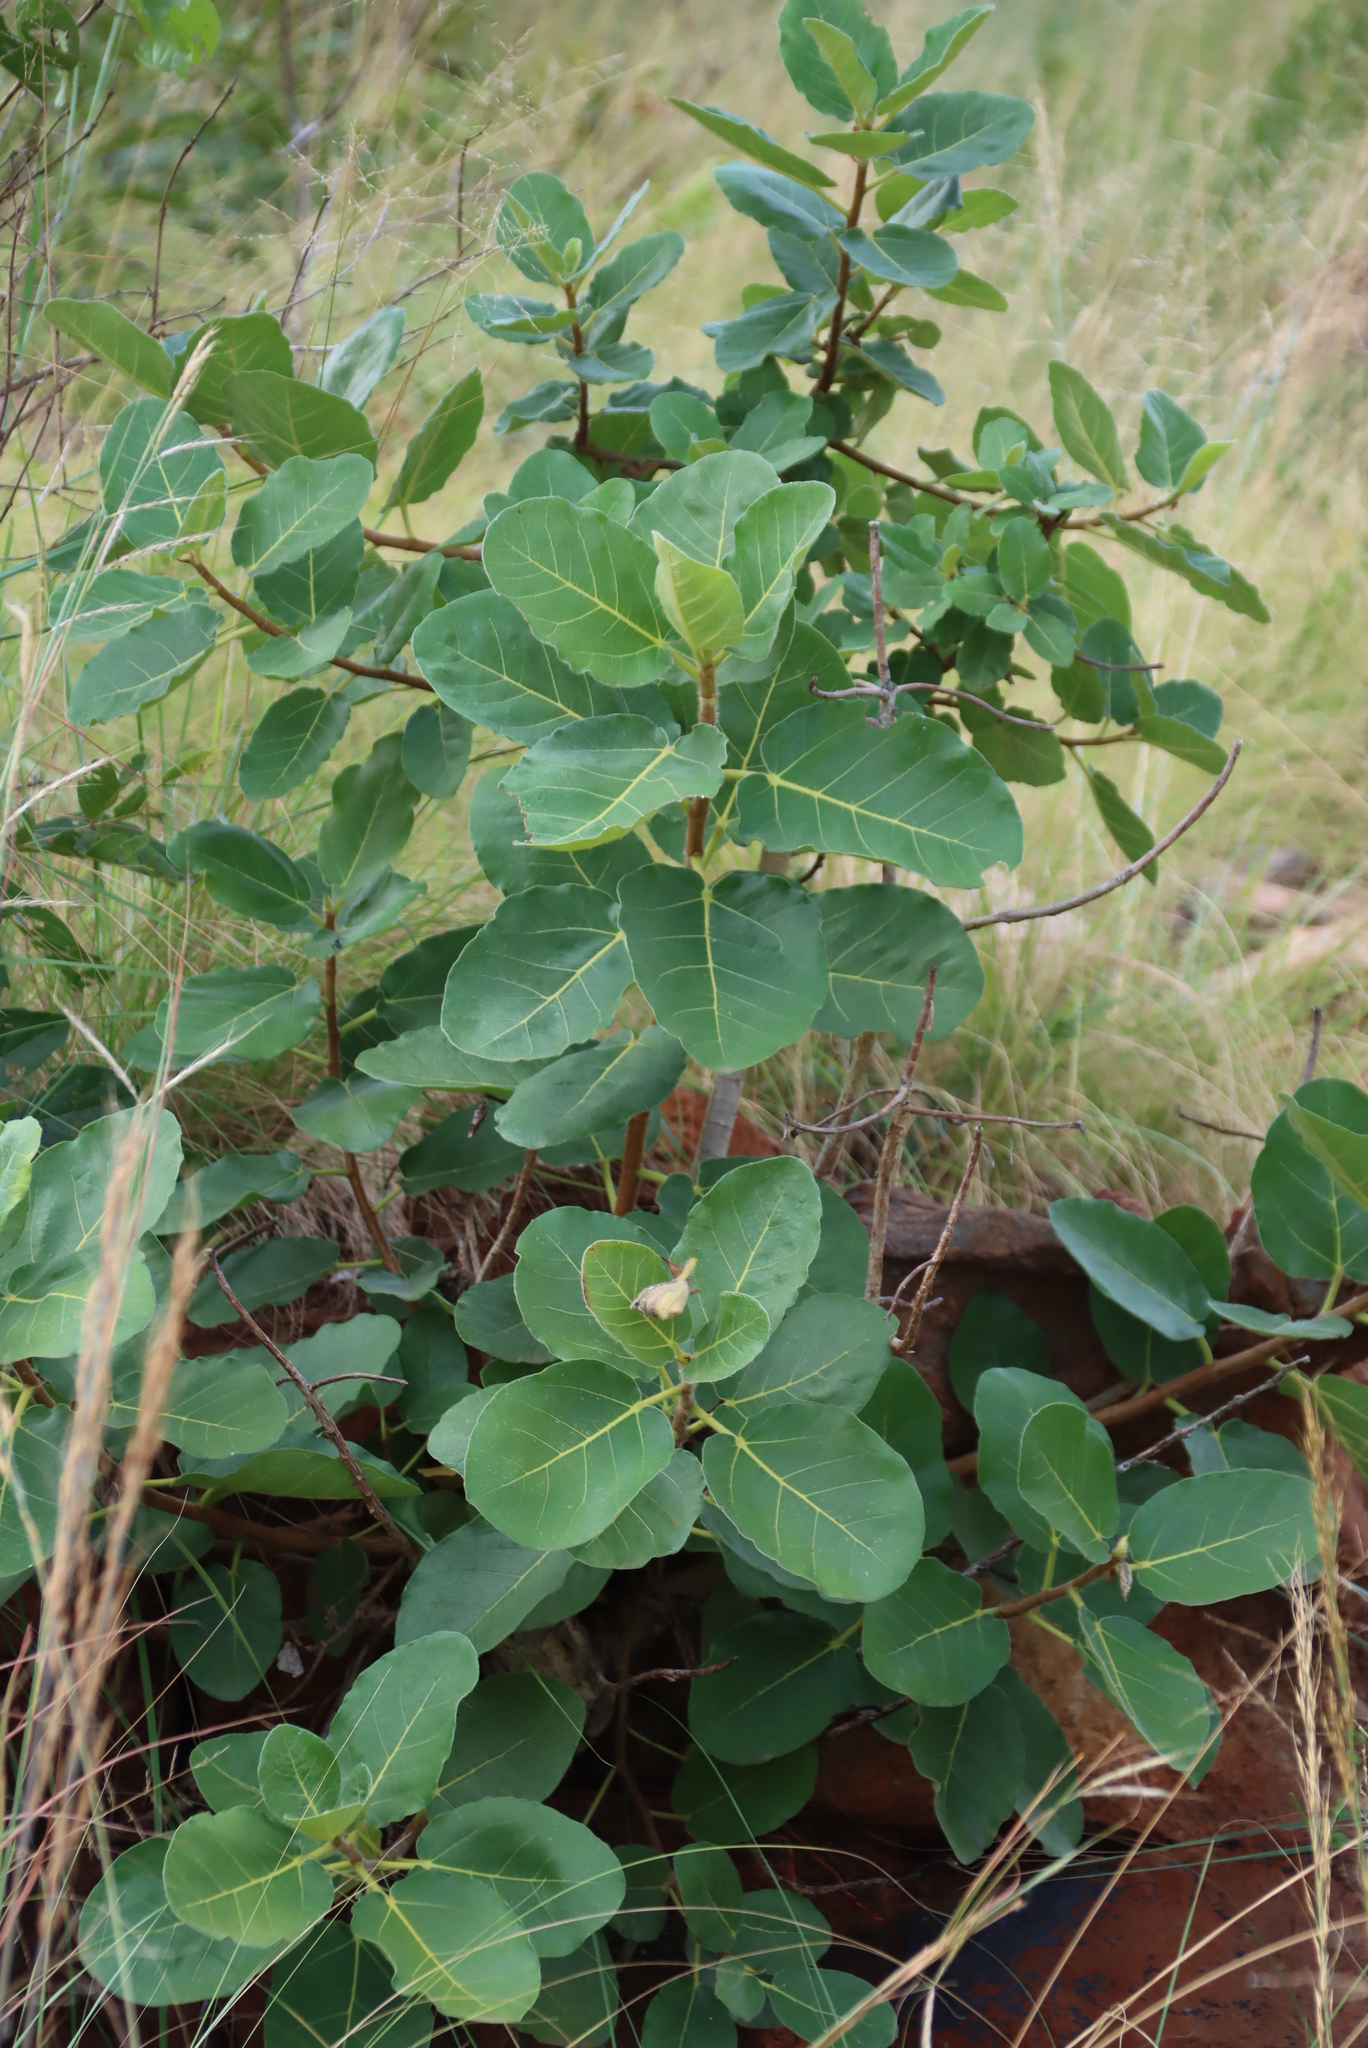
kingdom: Plantae
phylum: Tracheophyta
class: Magnoliopsida
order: Rosales
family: Moraceae
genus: Ficus
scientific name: Ficus glumosa
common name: Hairy rock fig
